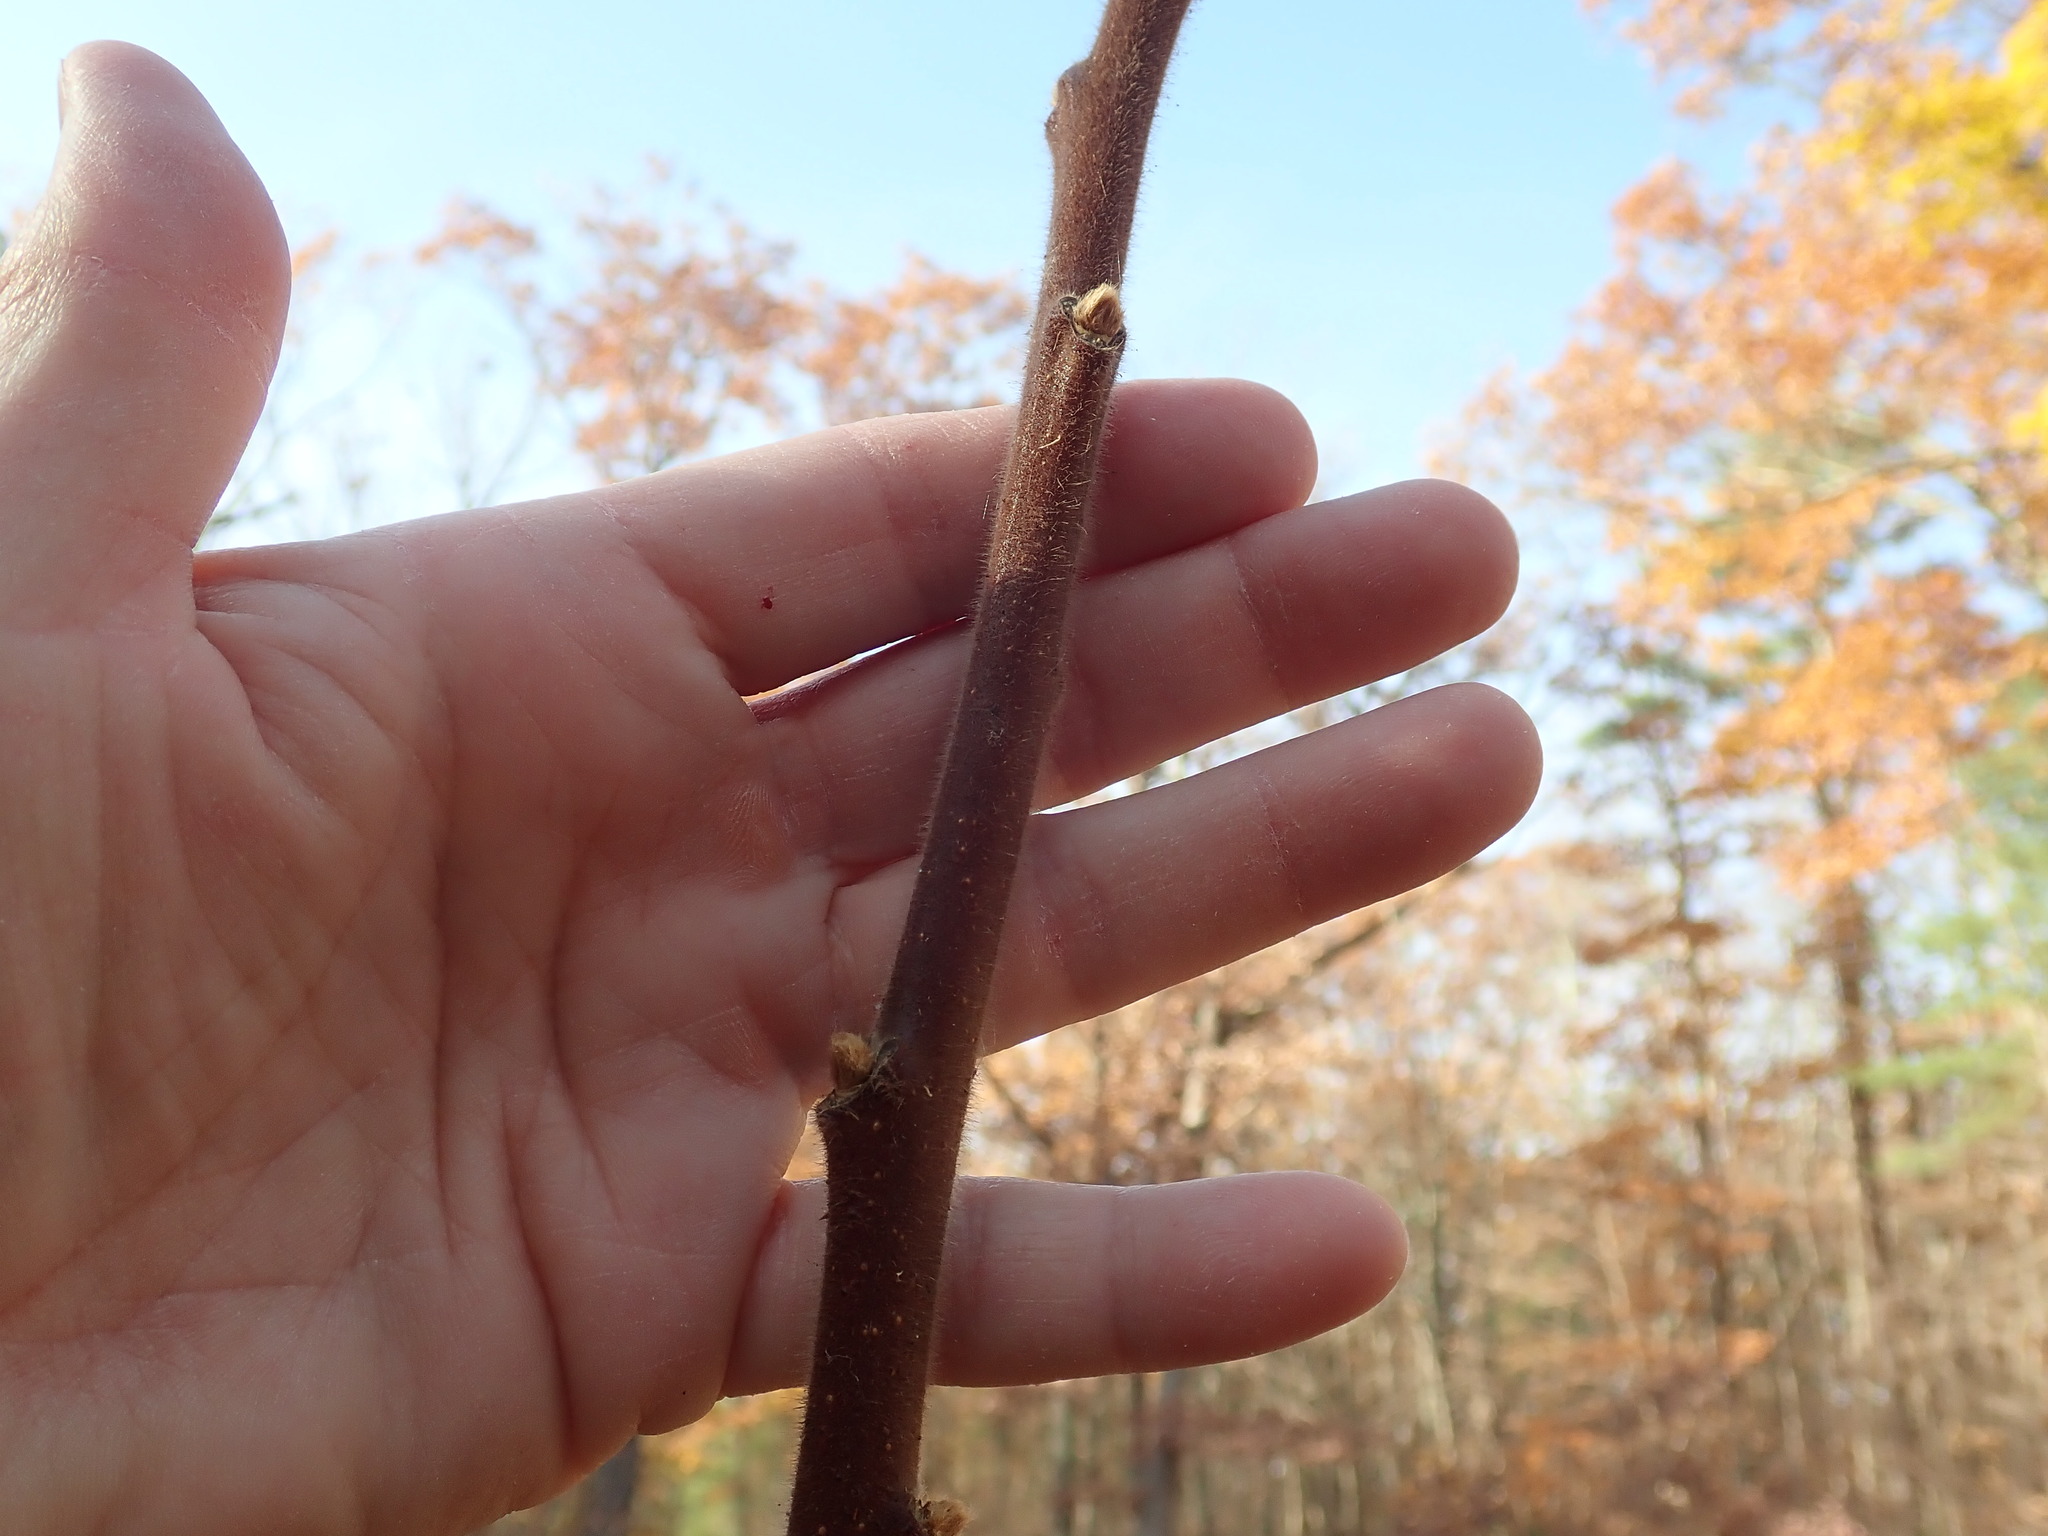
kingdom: Plantae
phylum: Tracheophyta
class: Magnoliopsida
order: Sapindales
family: Anacardiaceae
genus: Rhus
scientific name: Rhus typhina
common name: Staghorn sumac
